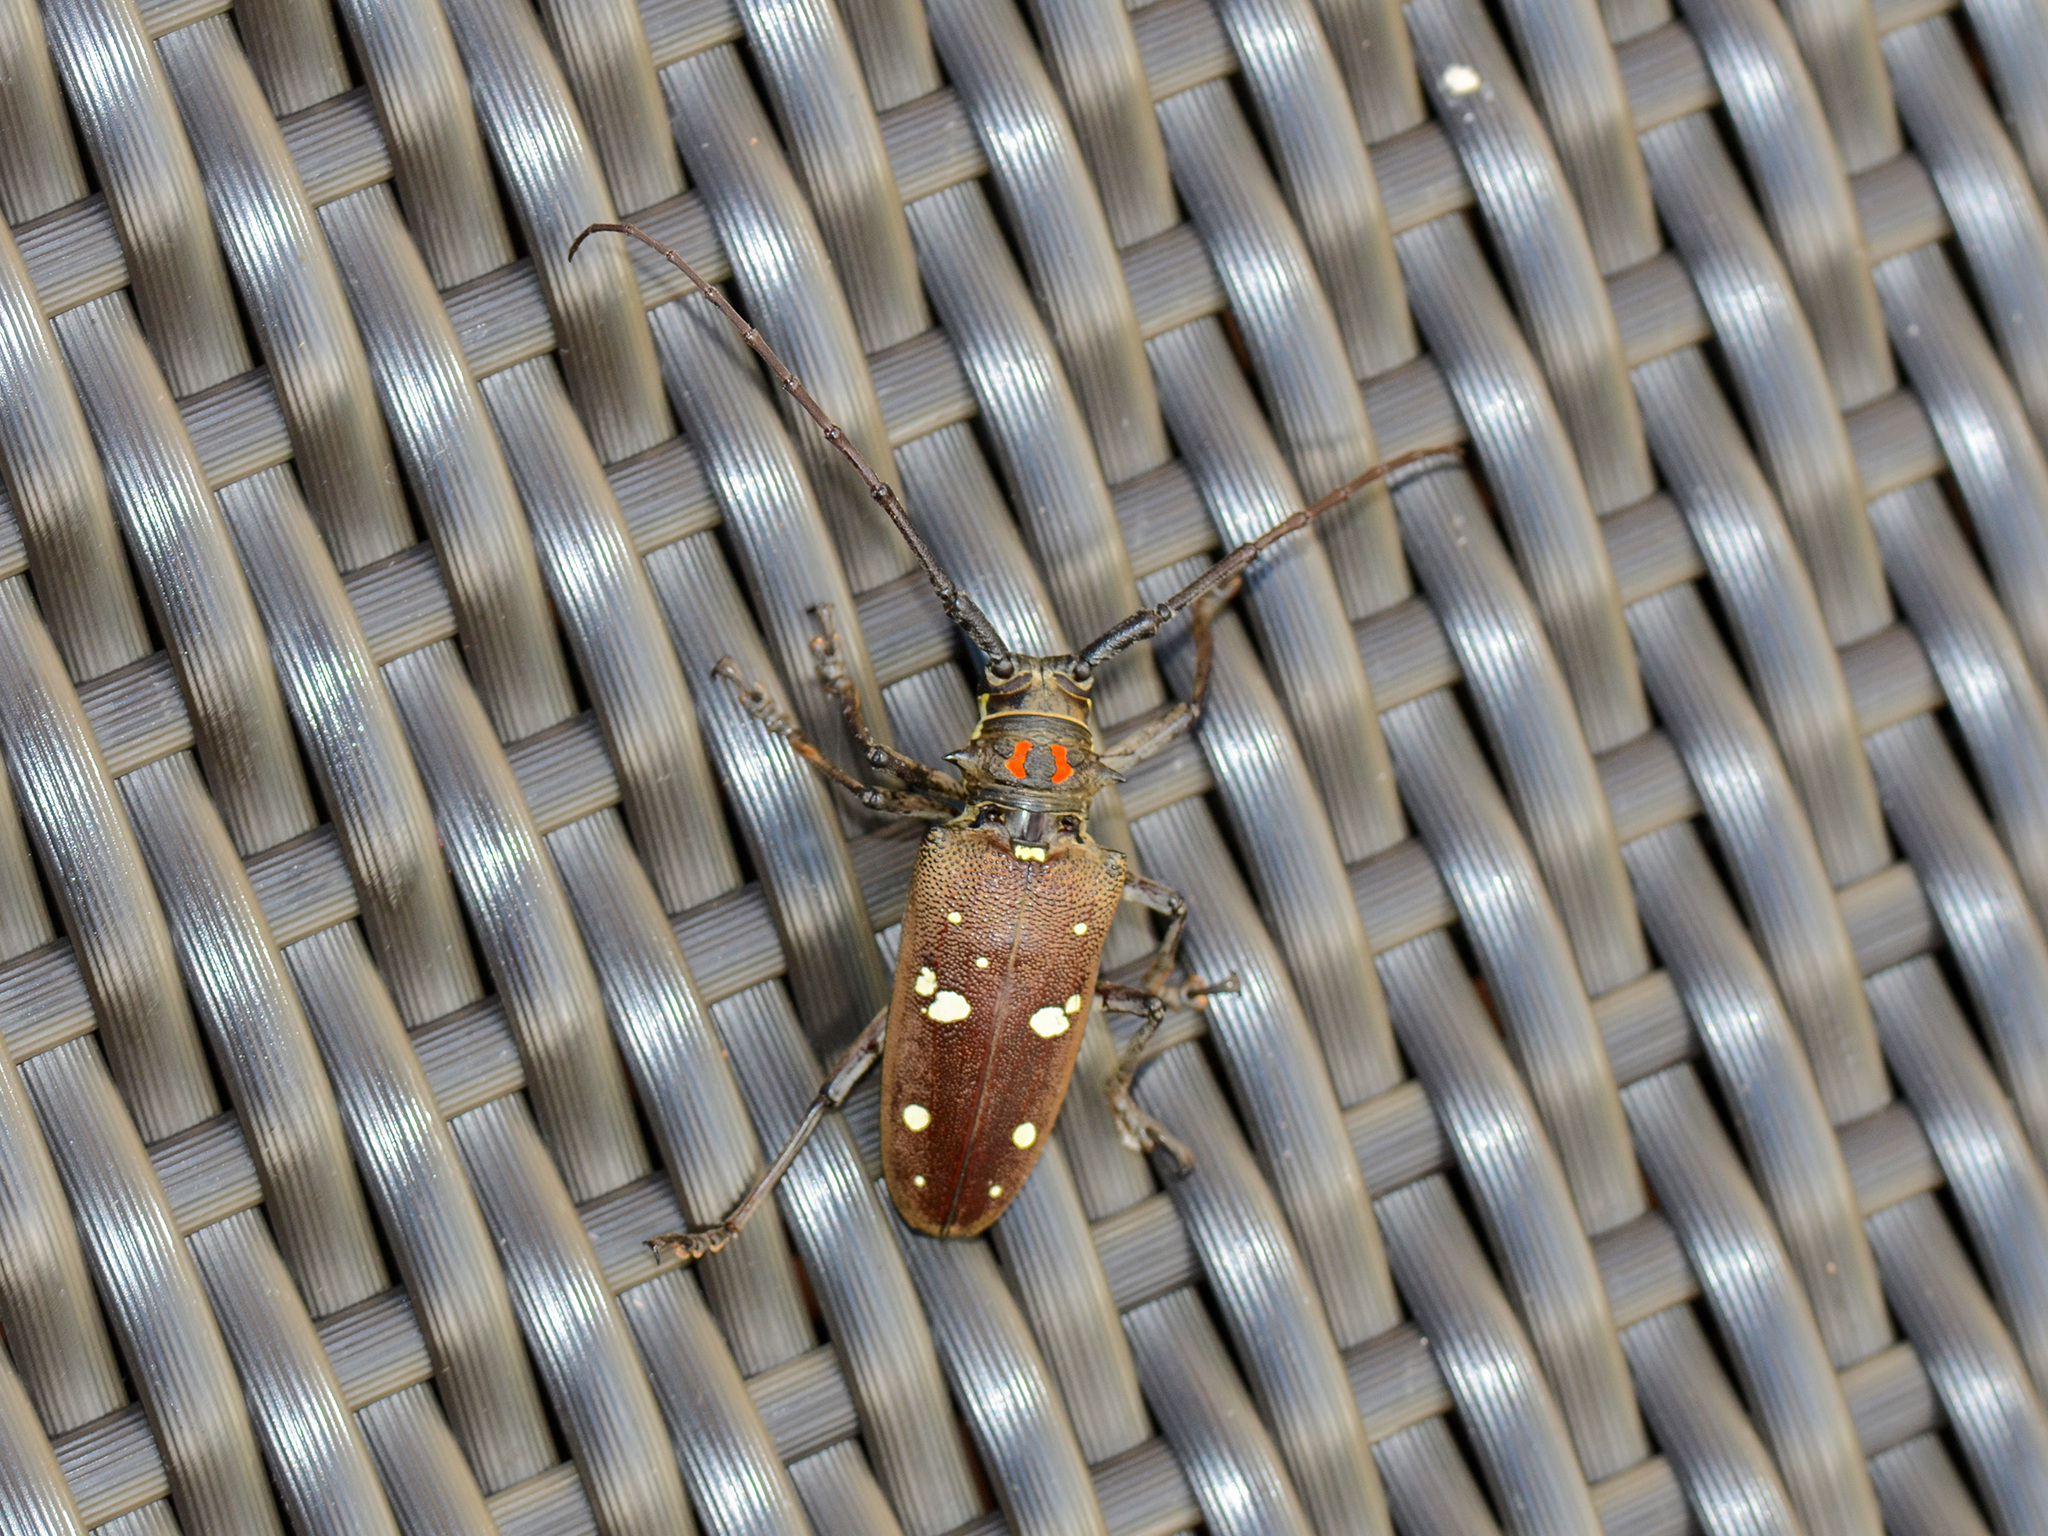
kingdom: Animalia
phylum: Arthropoda
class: Insecta
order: Coleoptera
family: Cerambycidae
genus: Batocera
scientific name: Batocera rubus
